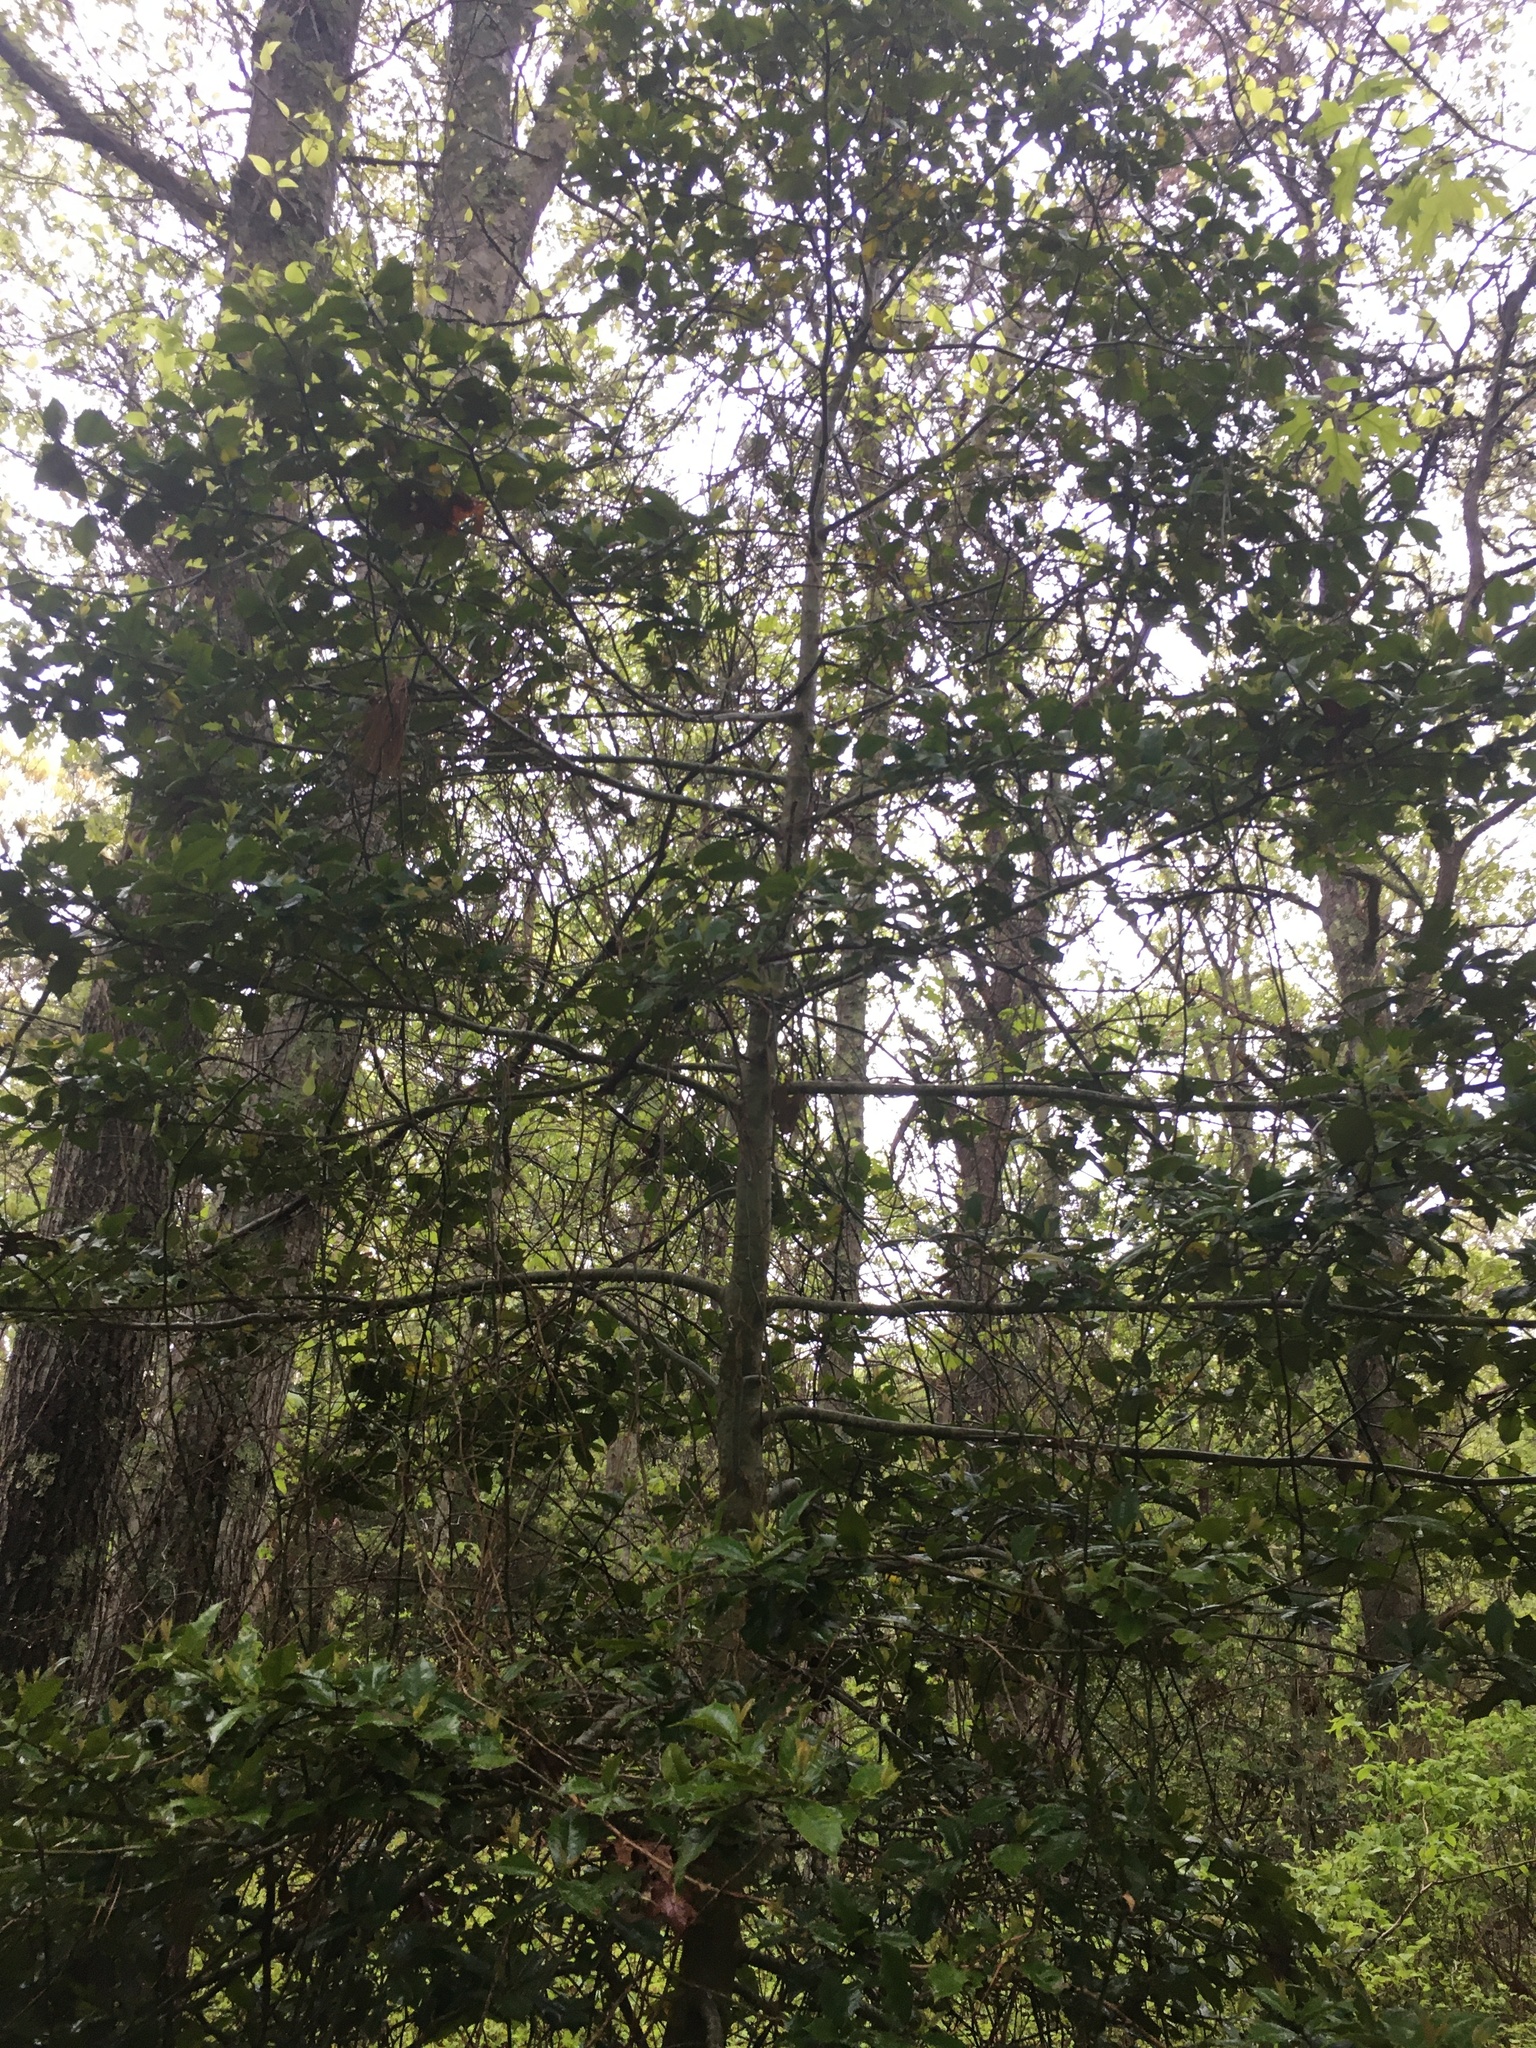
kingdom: Plantae
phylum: Tracheophyta
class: Magnoliopsida
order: Aquifoliales
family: Aquifoliaceae
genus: Ilex
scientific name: Ilex opaca
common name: American holly
